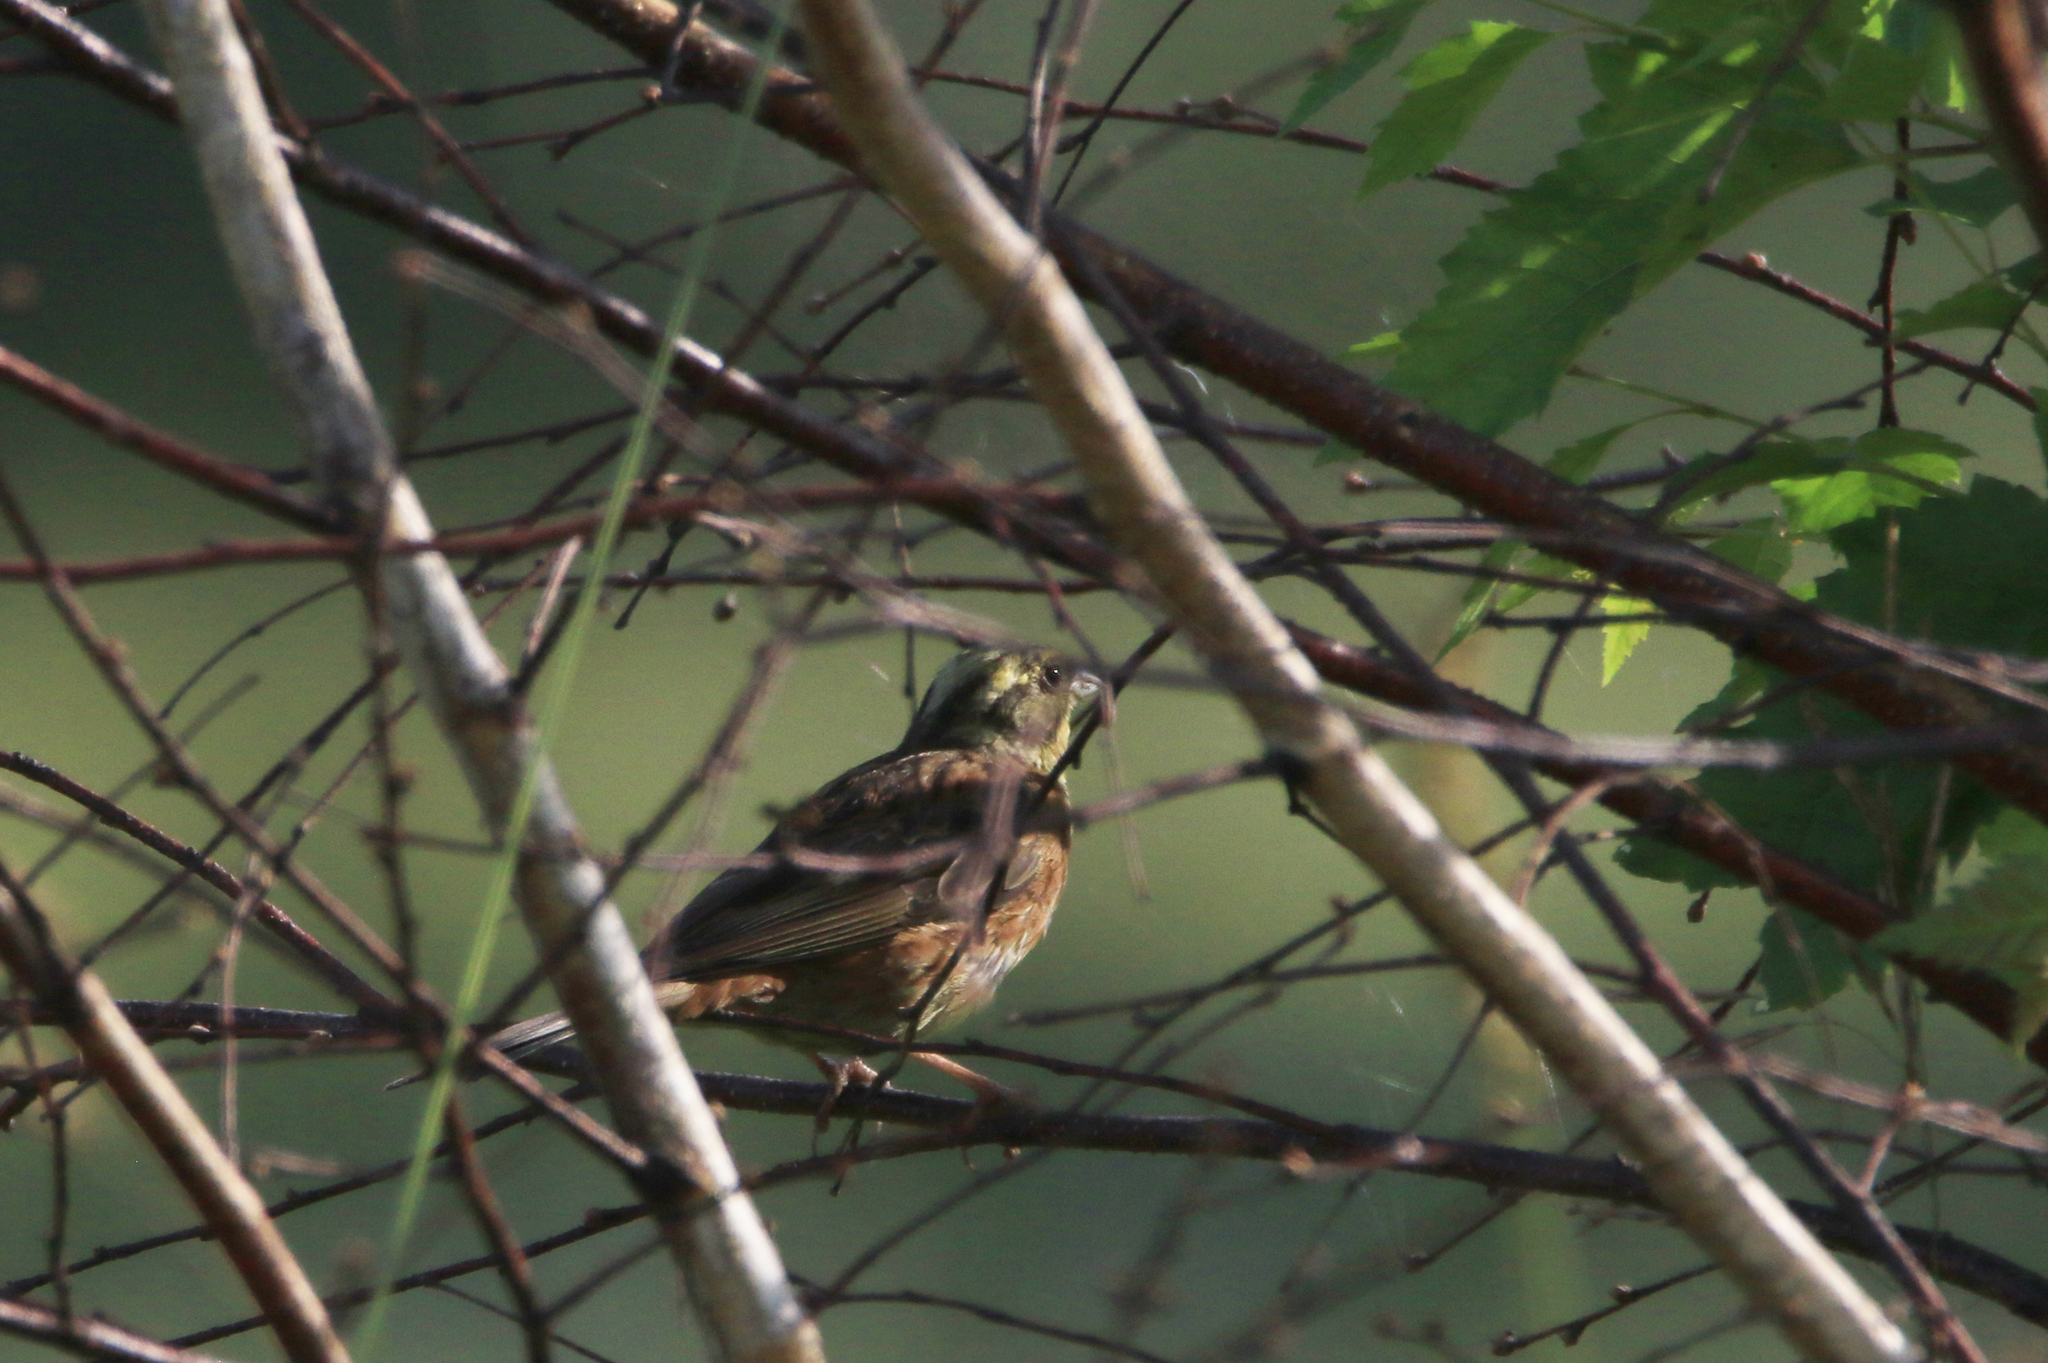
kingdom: Animalia
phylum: Chordata
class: Aves
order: Passeriformes
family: Emberizidae
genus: Emberiza
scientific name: Emberiza citrinella
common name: Yellowhammer
